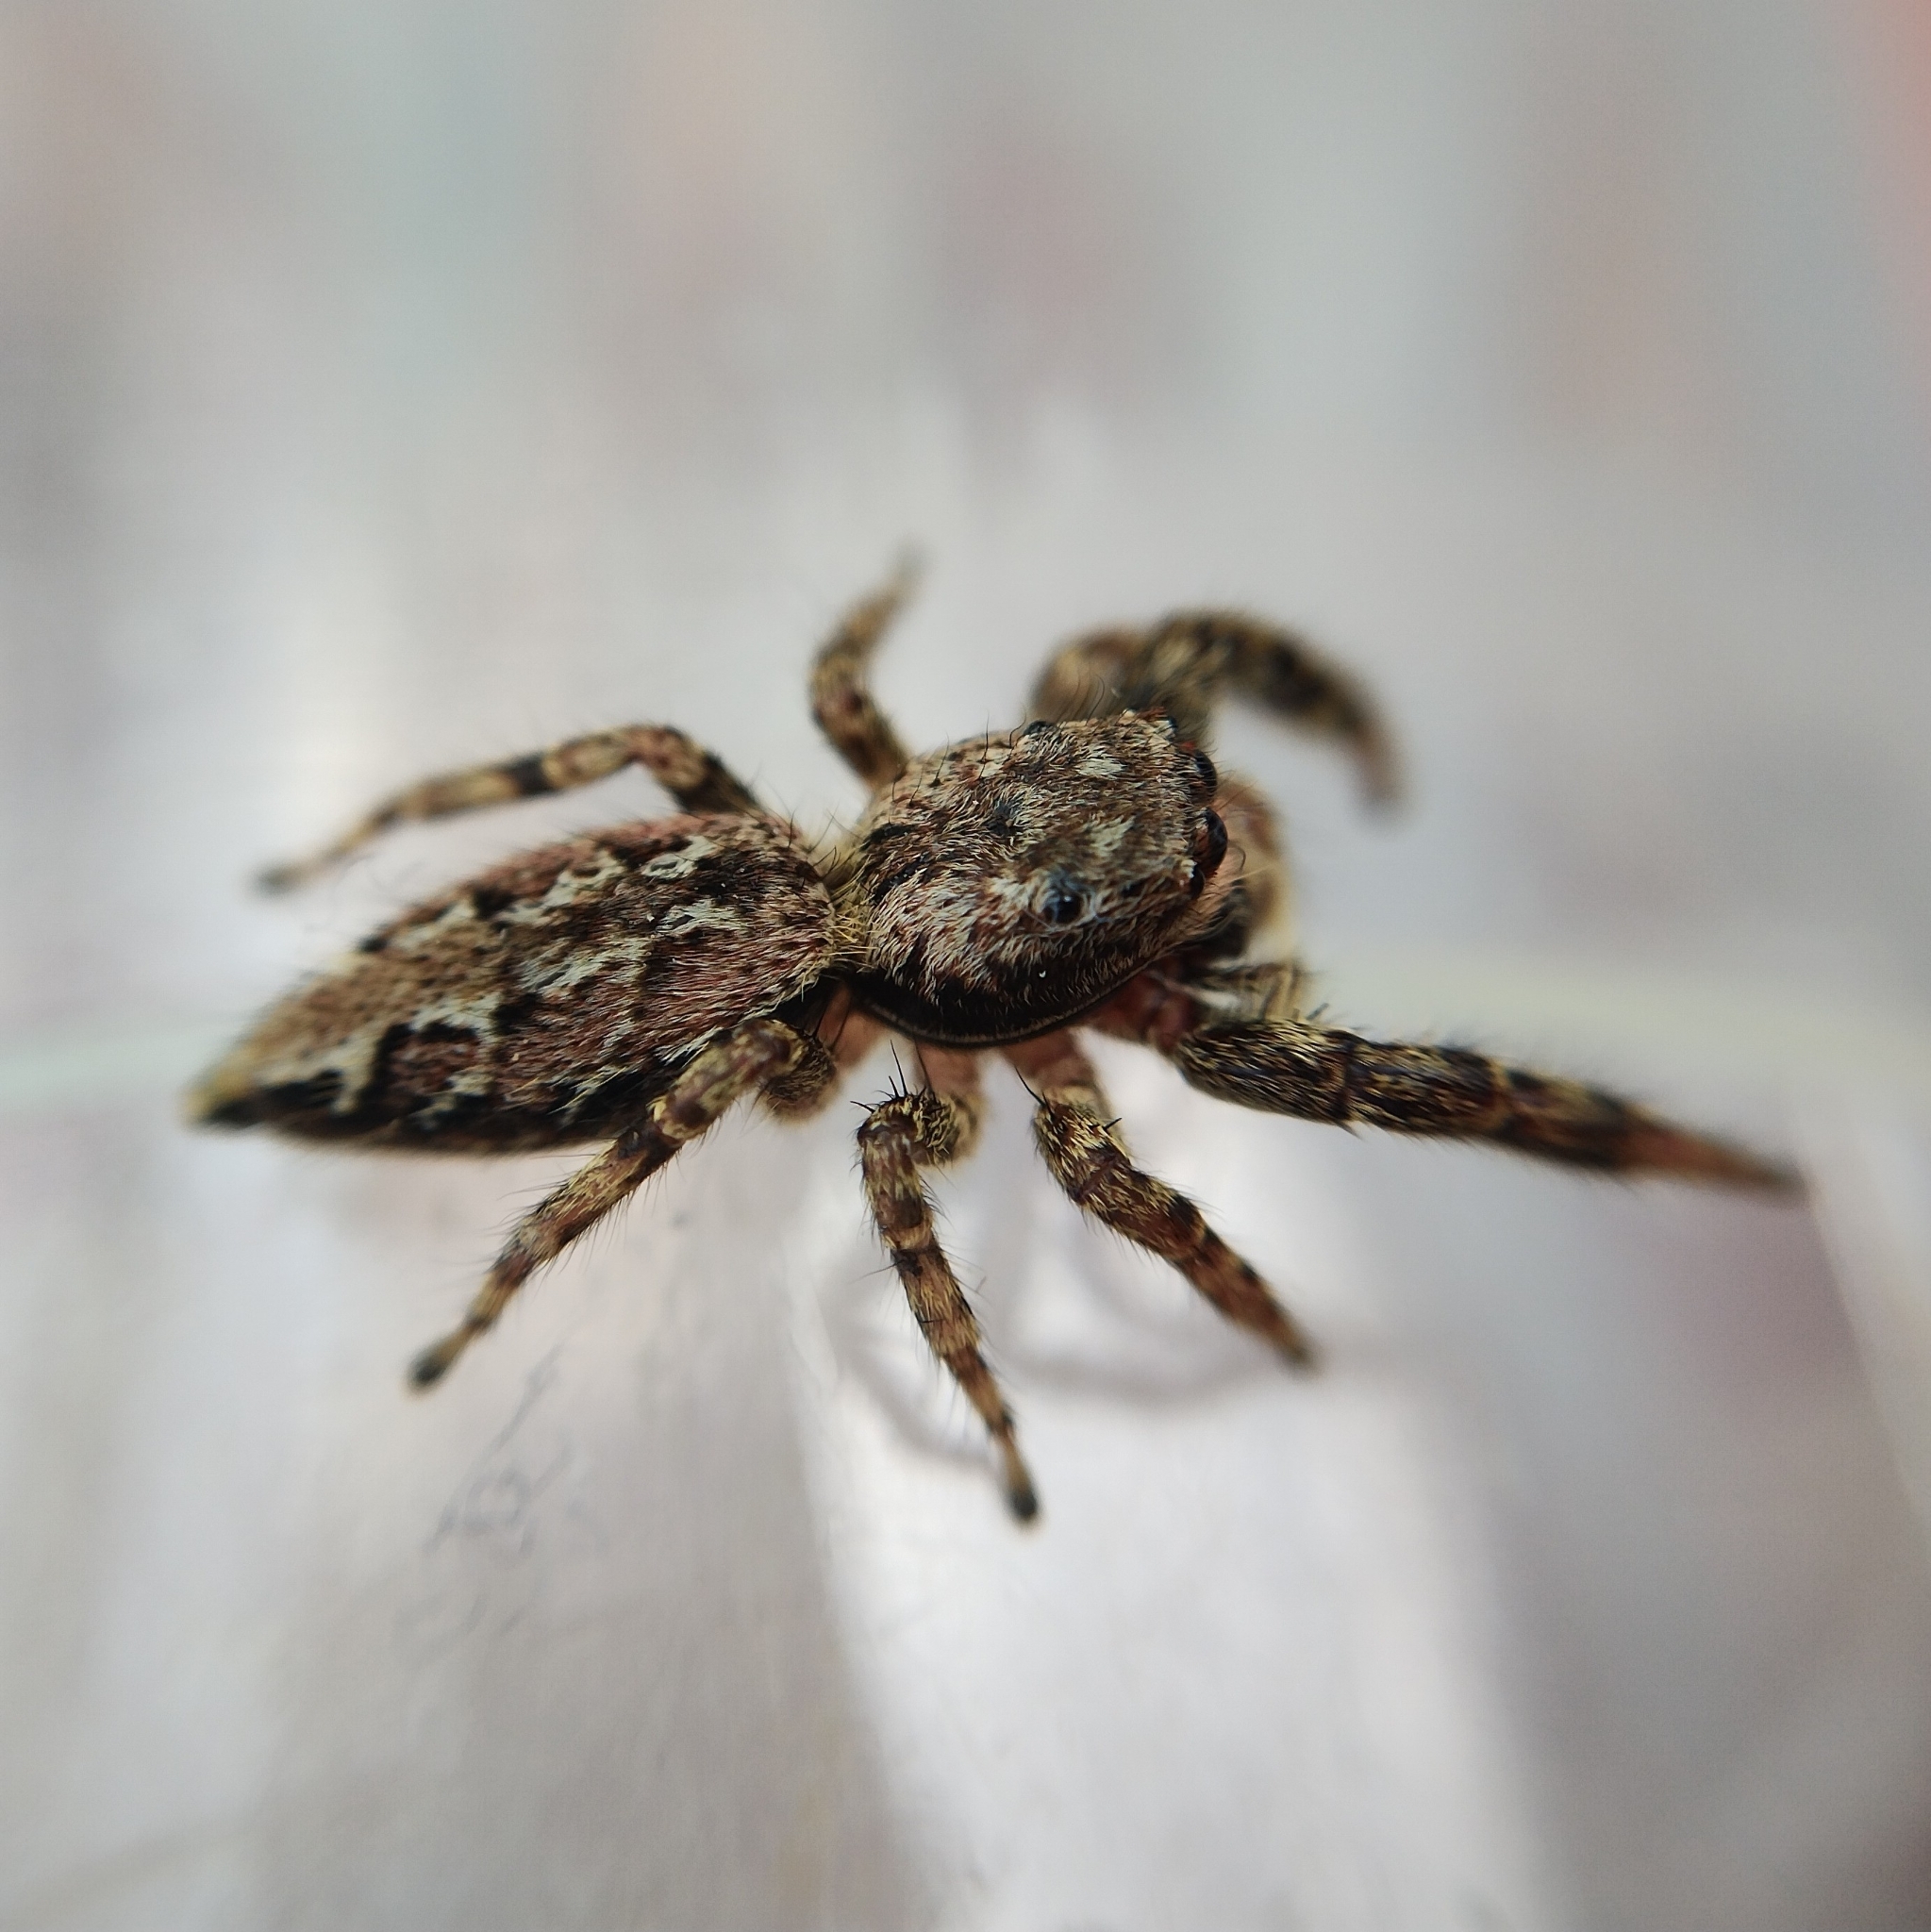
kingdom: Animalia
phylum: Arthropoda
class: Arachnida
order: Araneae
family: Salticidae
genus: Marpissa
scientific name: Marpissa muscosa
